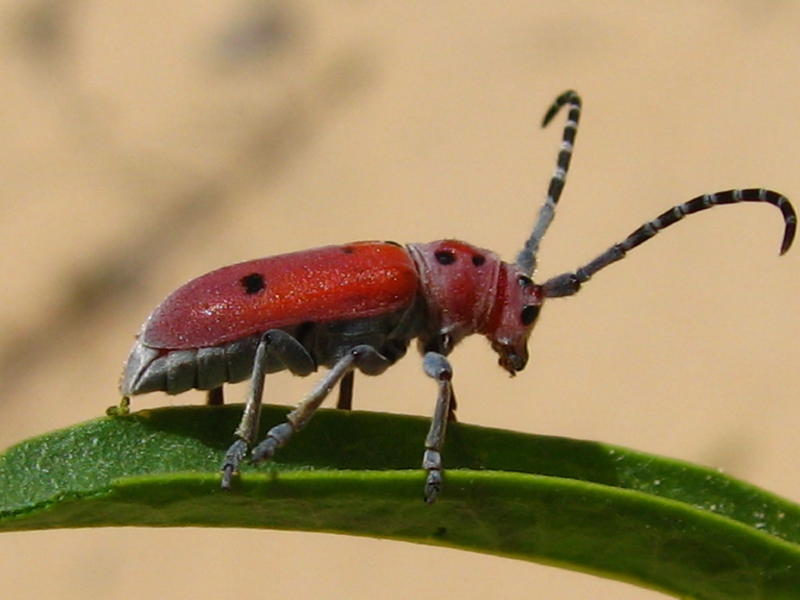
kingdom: Plantae
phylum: Tracheophyta
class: Magnoliopsida
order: Gentianales
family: Apocynaceae
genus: Asclepias
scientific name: Asclepias labriformis
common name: Labriformis milkweed
